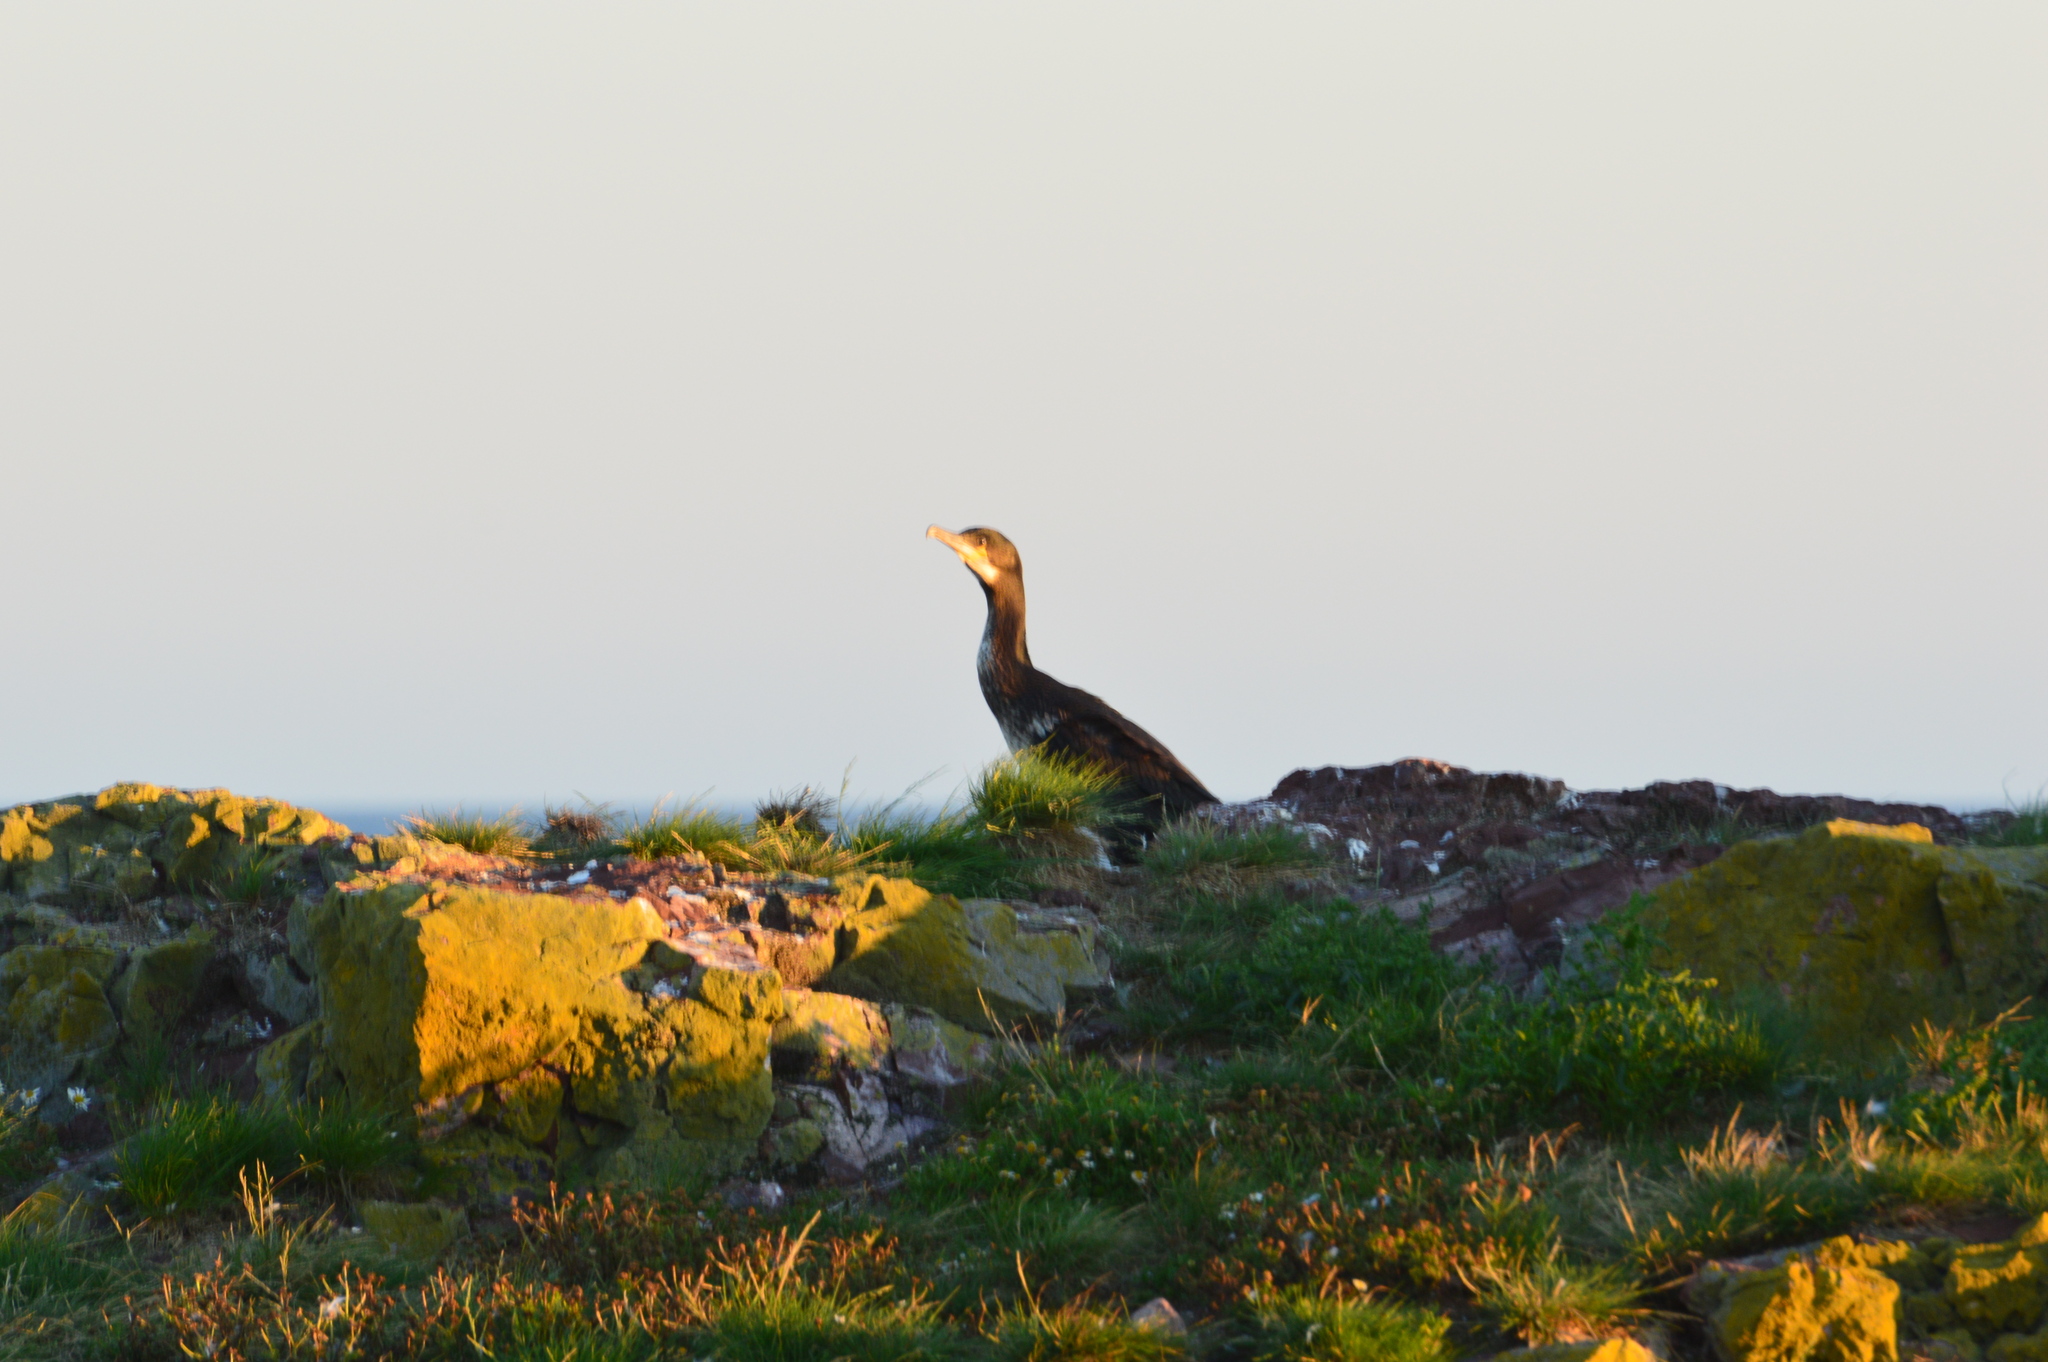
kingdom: Animalia
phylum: Chordata
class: Aves
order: Suliformes
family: Phalacrocoracidae
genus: Phalacrocorax
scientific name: Phalacrocorax carbo
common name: Great cormorant
